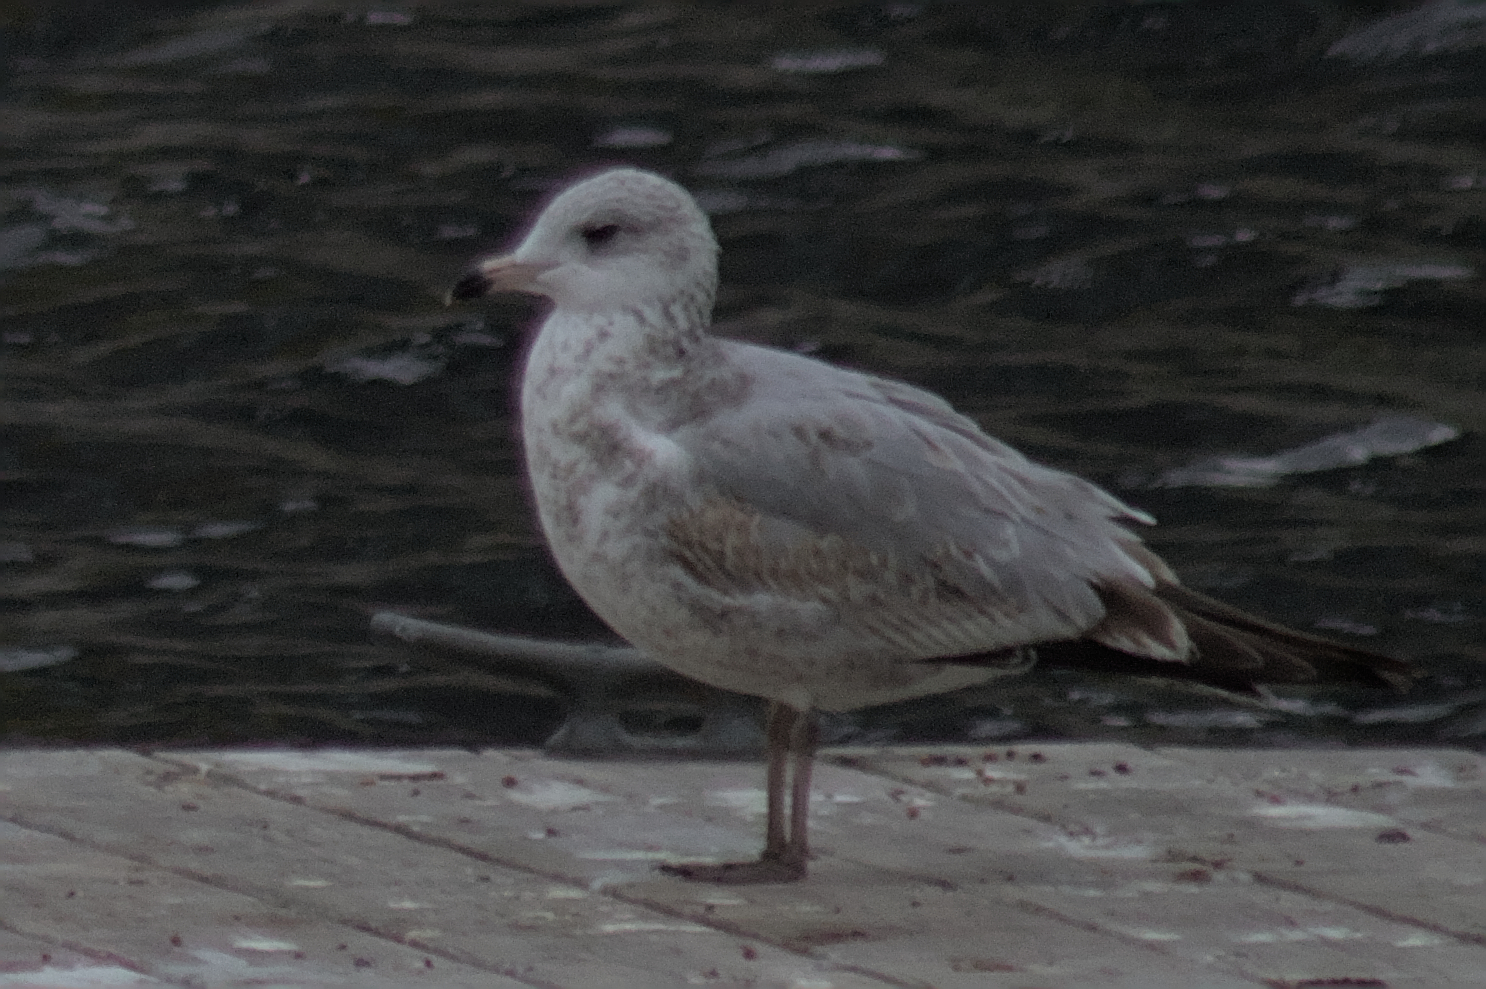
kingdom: Animalia
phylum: Chordata
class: Aves
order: Charadriiformes
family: Laridae
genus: Larus
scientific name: Larus delawarensis
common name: Ring-billed gull
